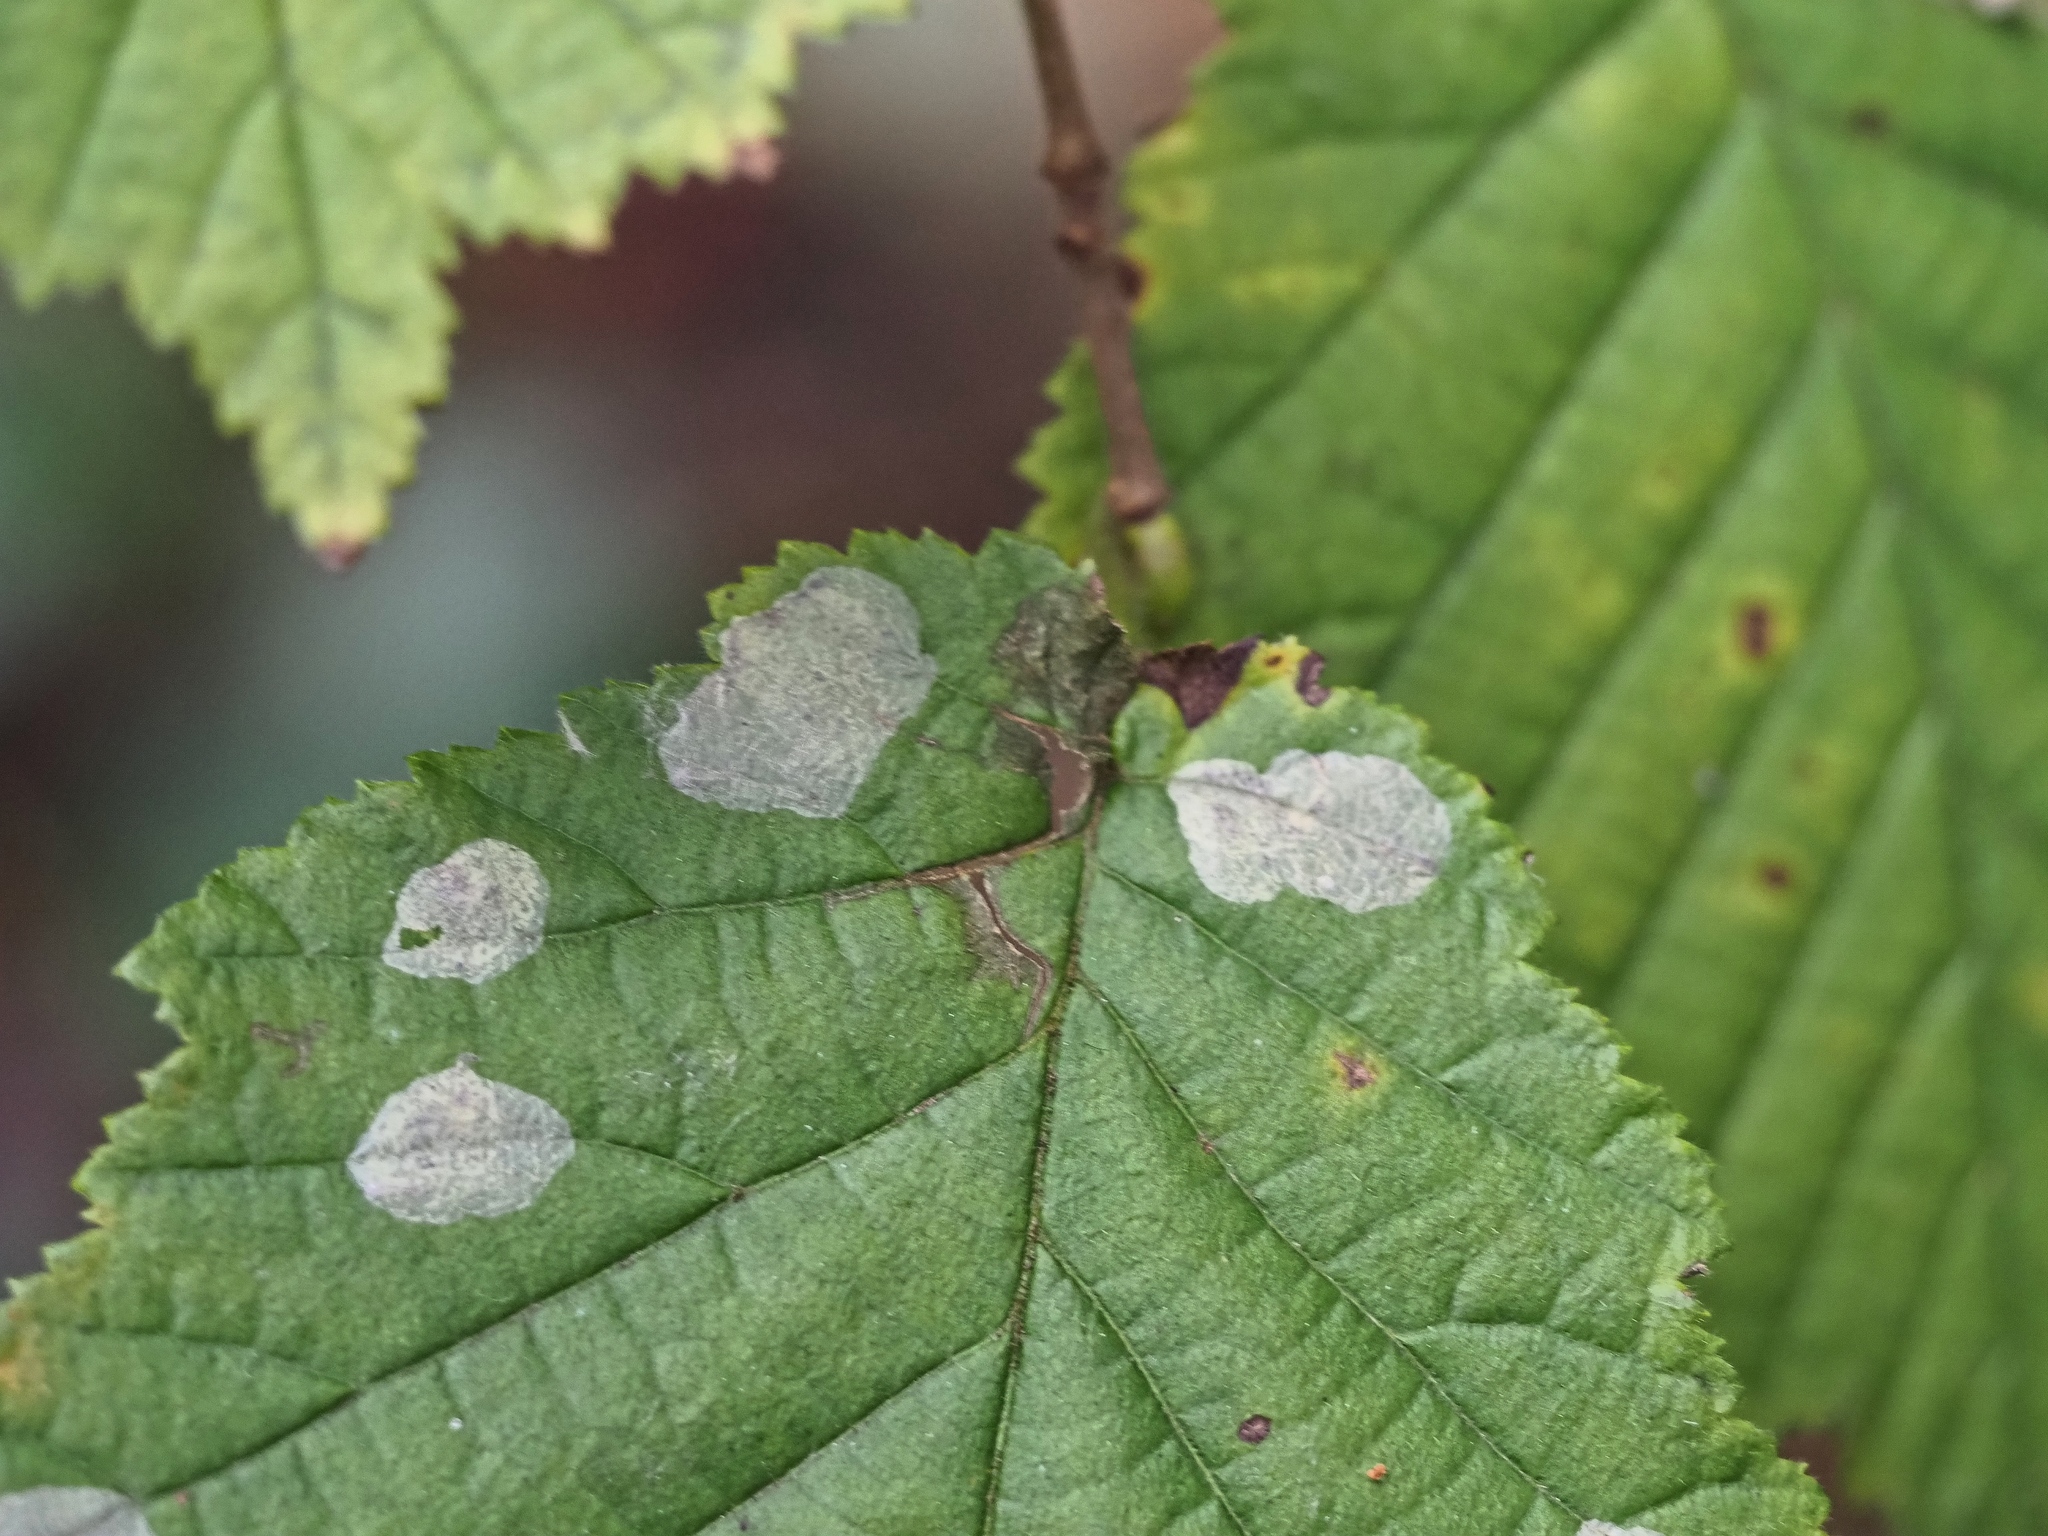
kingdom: Animalia
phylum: Arthropoda
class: Insecta
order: Lepidoptera
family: Gracillariidae
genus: Phyllonorycter
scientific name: Phyllonorycter coryli
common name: Nut-leaf blister moth
